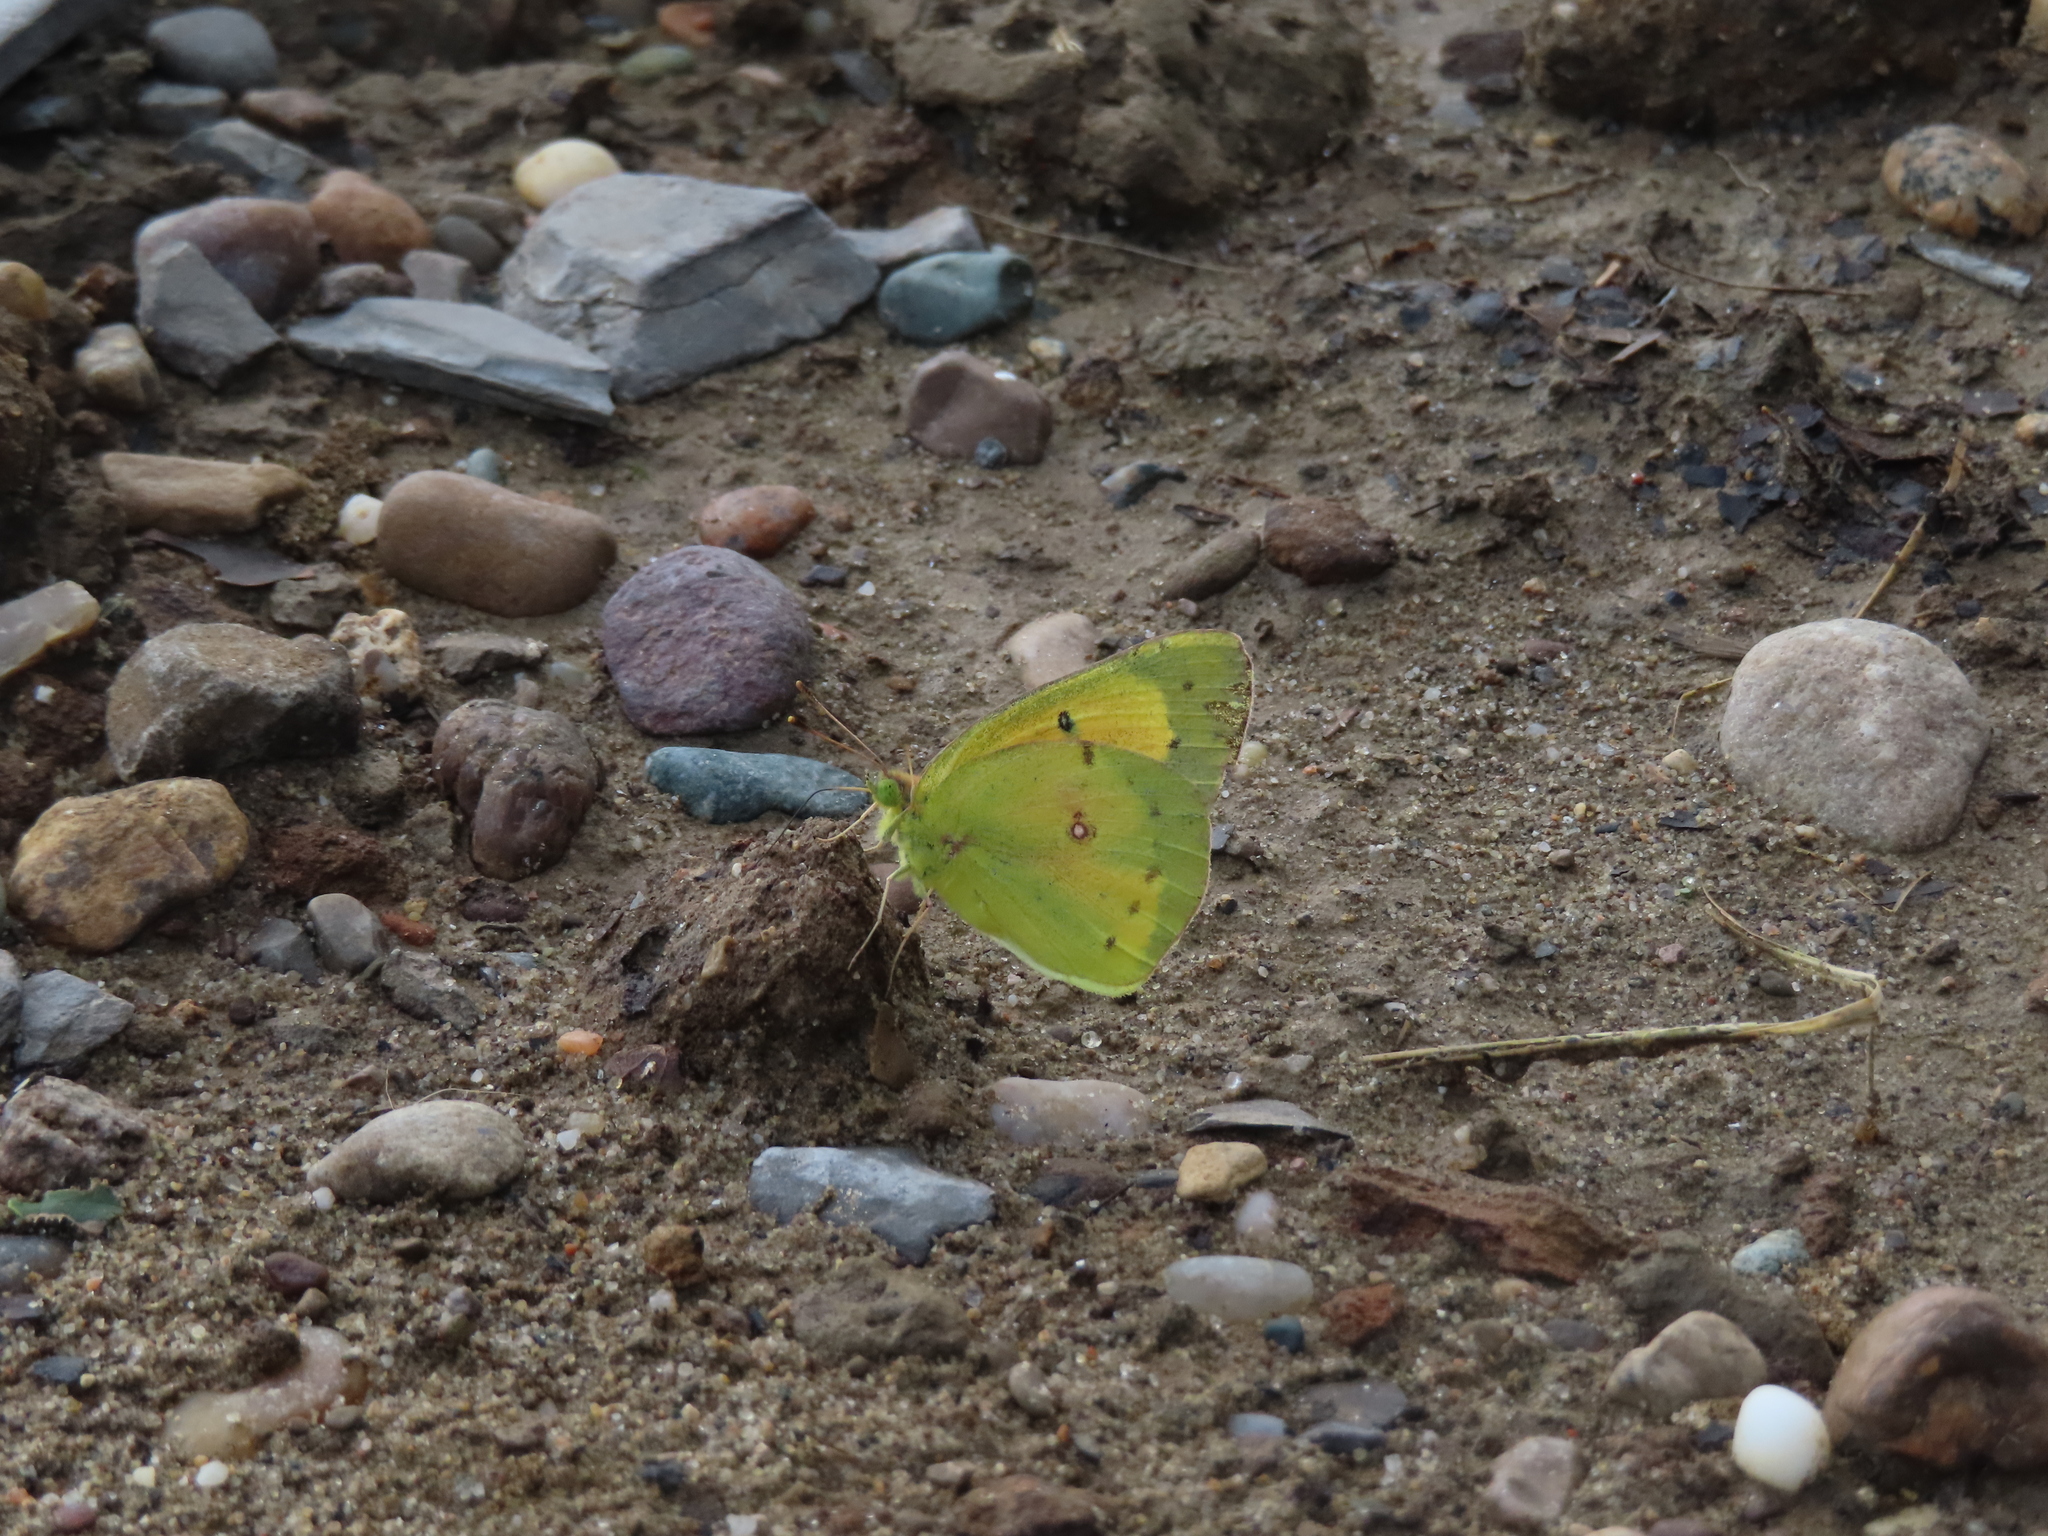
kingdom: Animalia
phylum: Arthropoda
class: Insecta
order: Lepidoptera
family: Pieridae
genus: Colias
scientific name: Colias eurytheme
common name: Alfalfa butterfly
